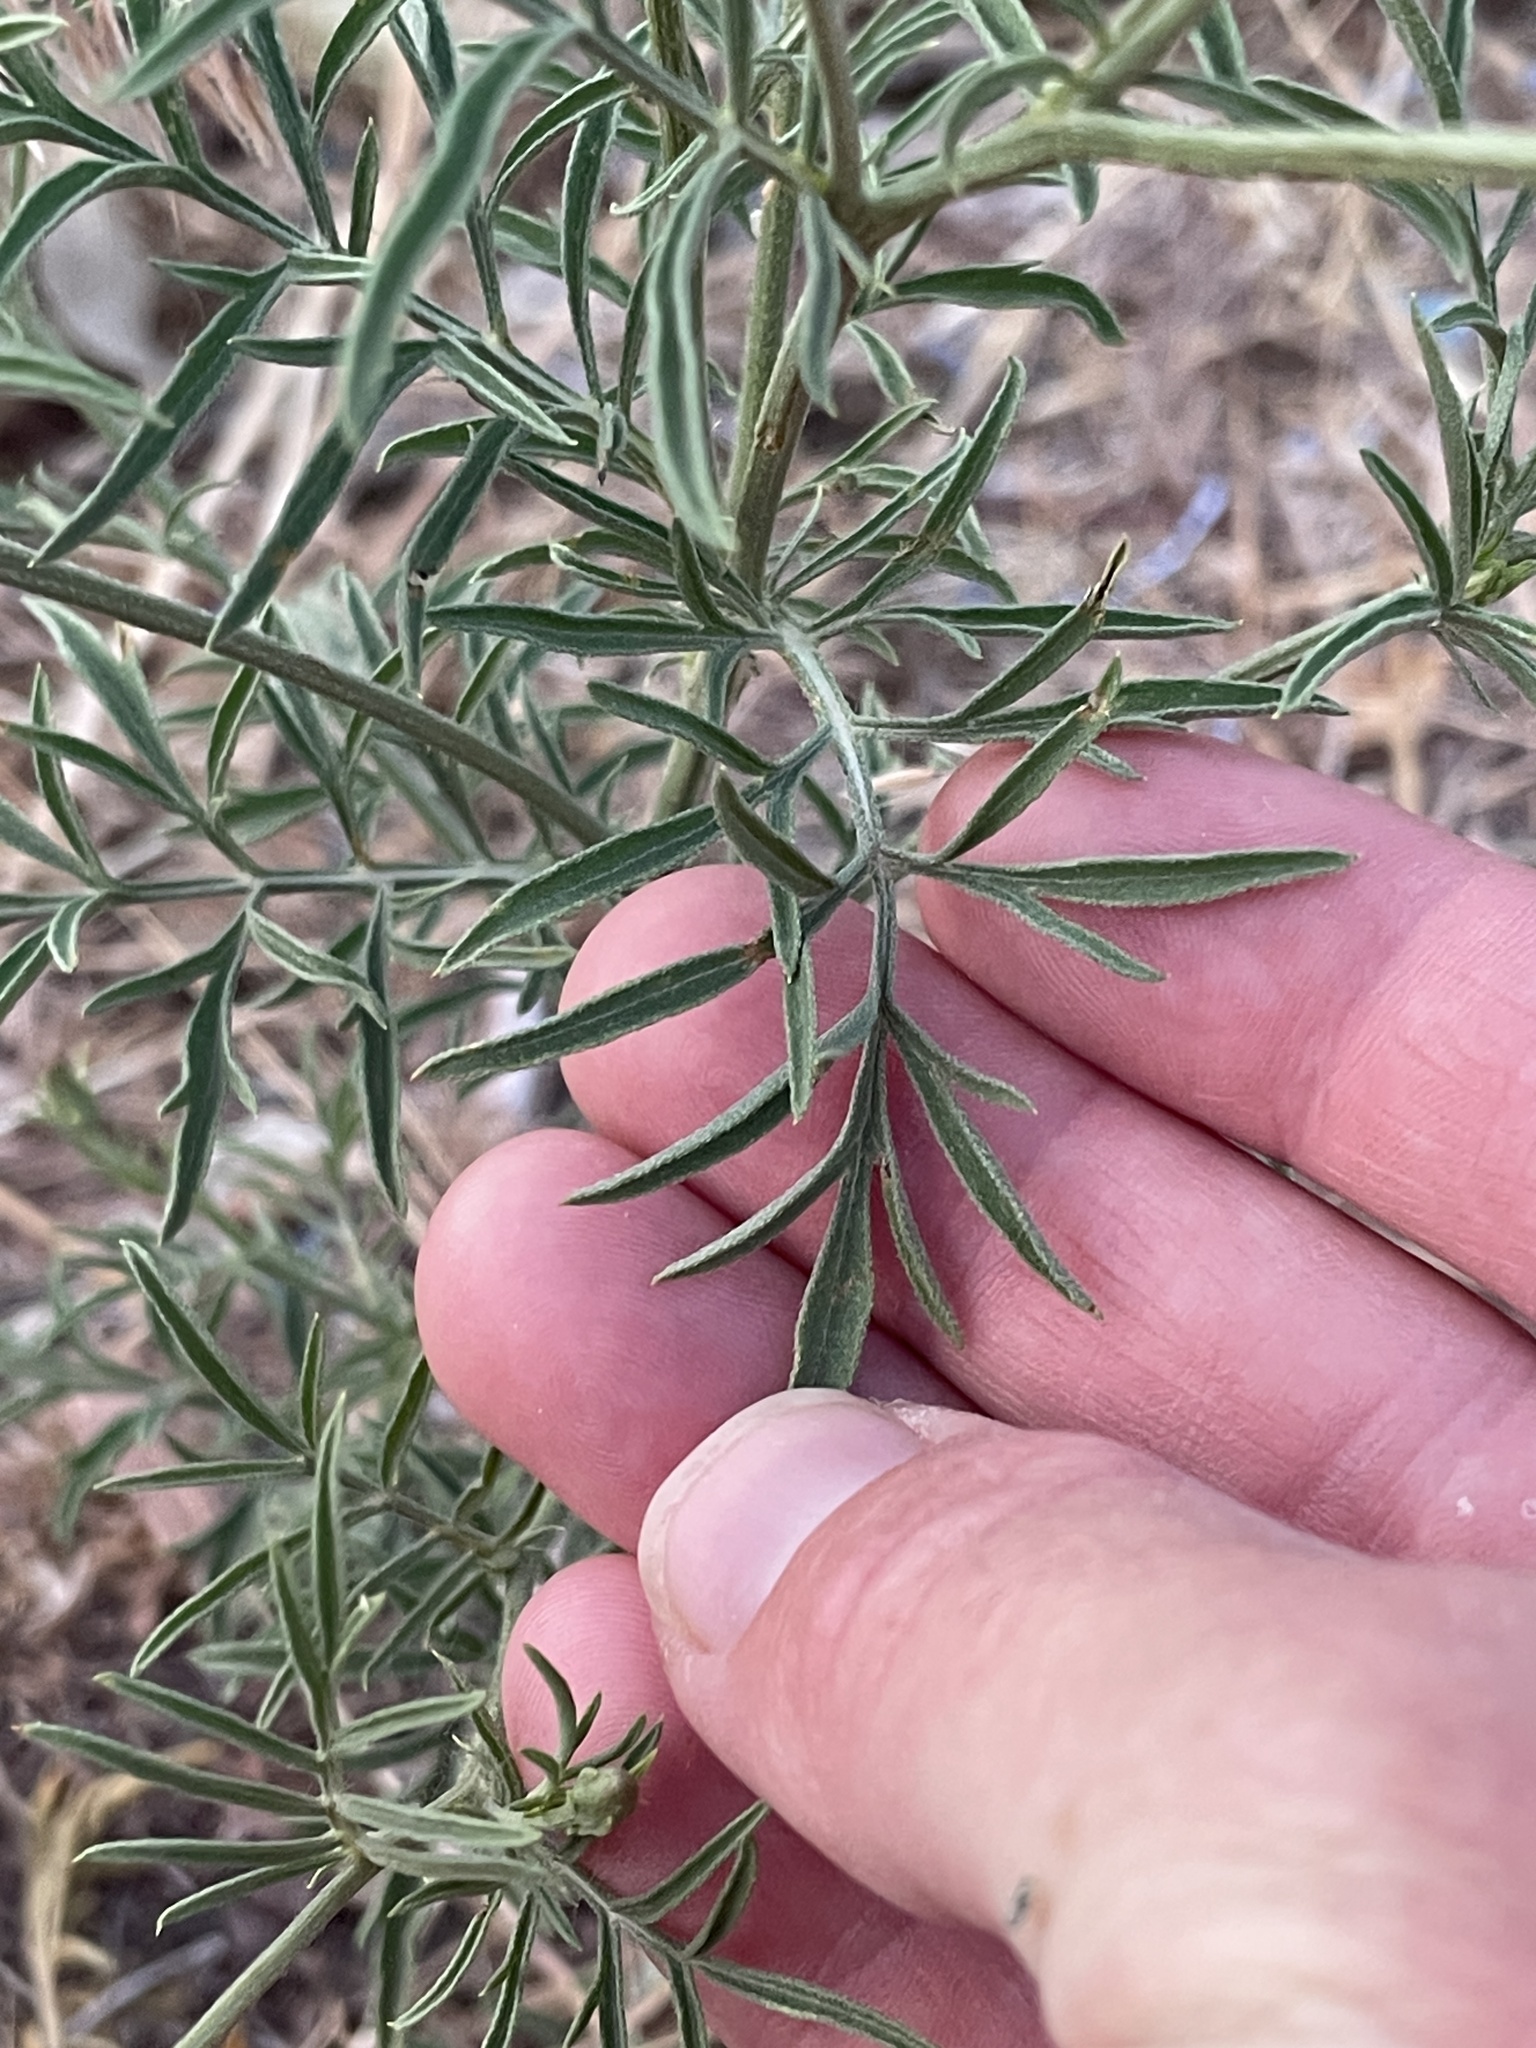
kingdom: Plantae
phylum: Tracheophyta
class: Magnoliopsida
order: Asterales
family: Asteraceae
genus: Ratibida
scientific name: Ratibida columnifera
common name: Prairie coneflower
